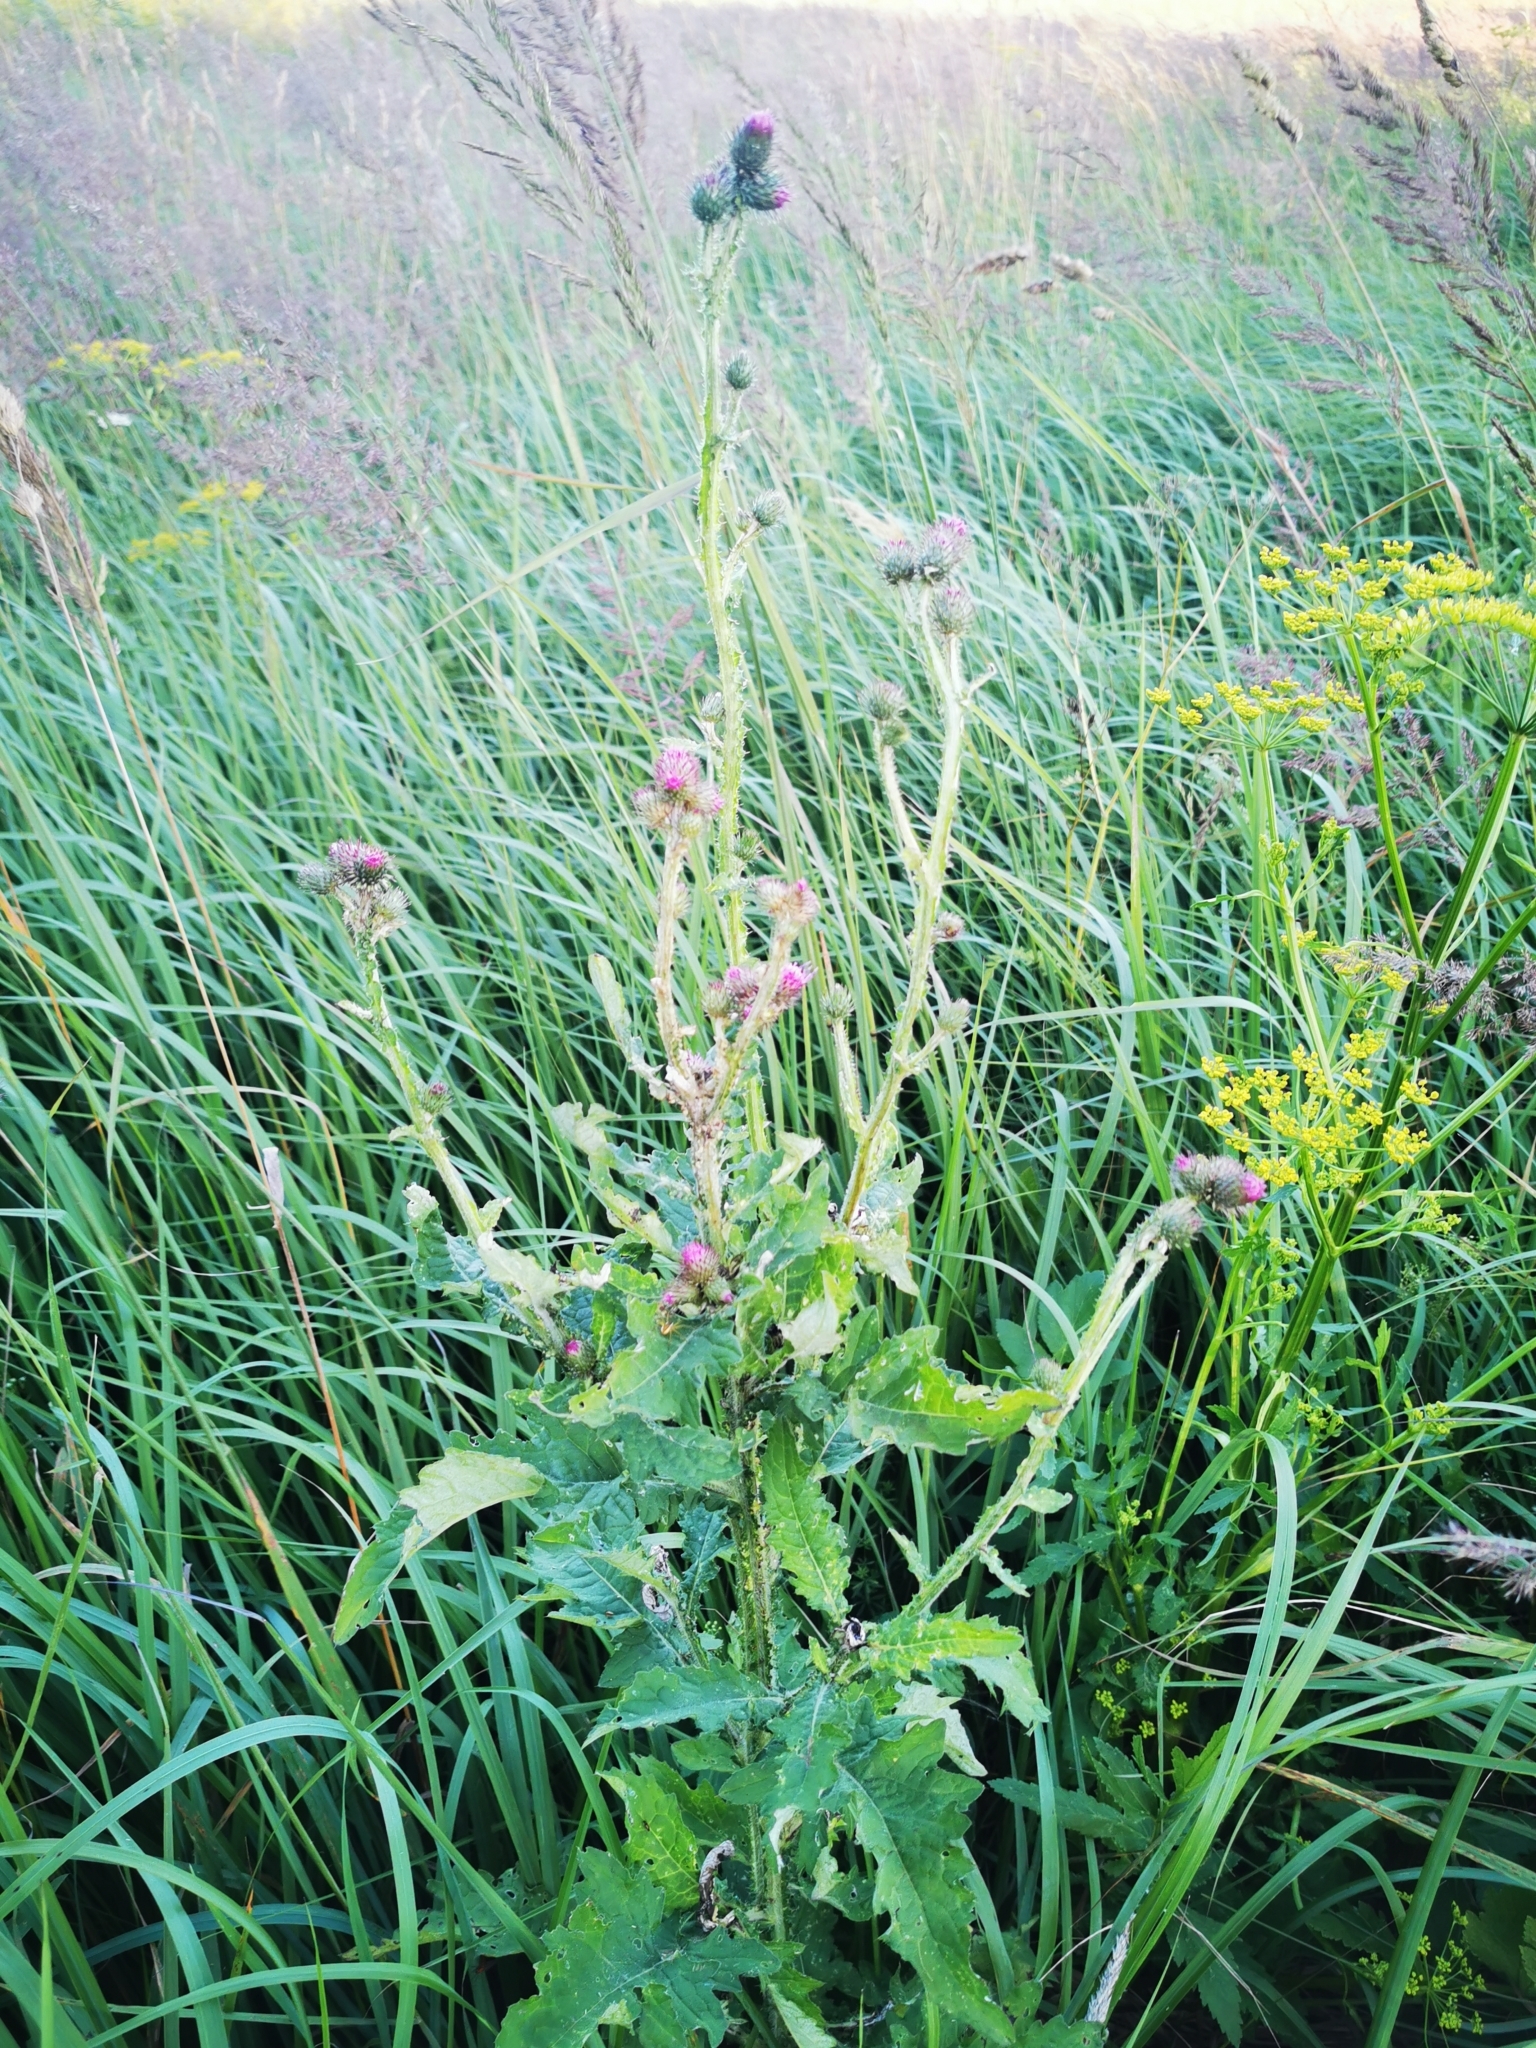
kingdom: Plantae
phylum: Tracheophyta
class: Magnoliopsida
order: Asterales
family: Asteraceae
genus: Carduus
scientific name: Carduus crispus
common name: Welted thistle
